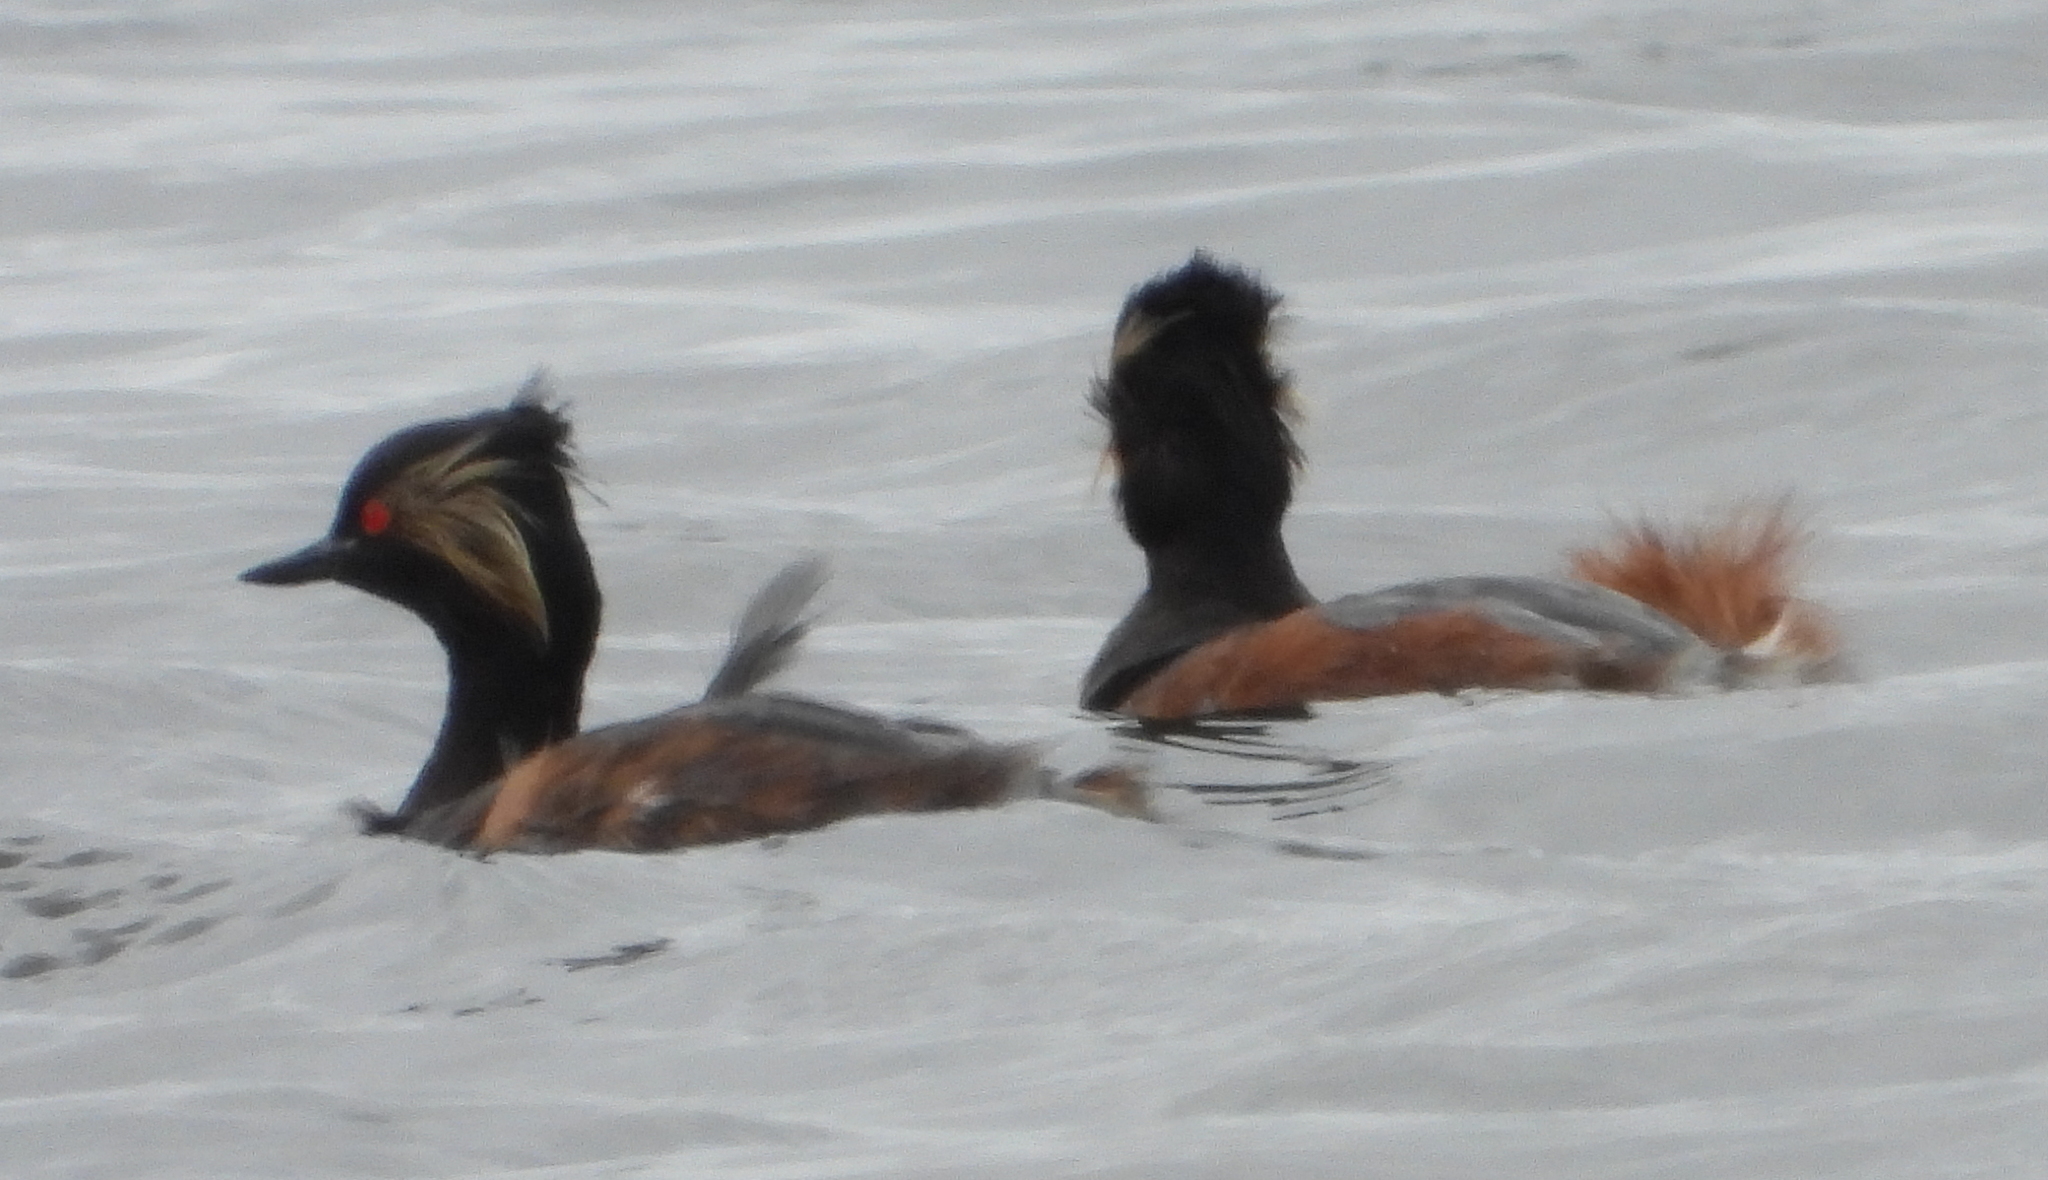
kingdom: Animalia
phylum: Chordata
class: Aves
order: Podicipediformes
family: Podicipedidae
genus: Podiceps
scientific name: Podiceps nigricollis
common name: Black-necked grebe
